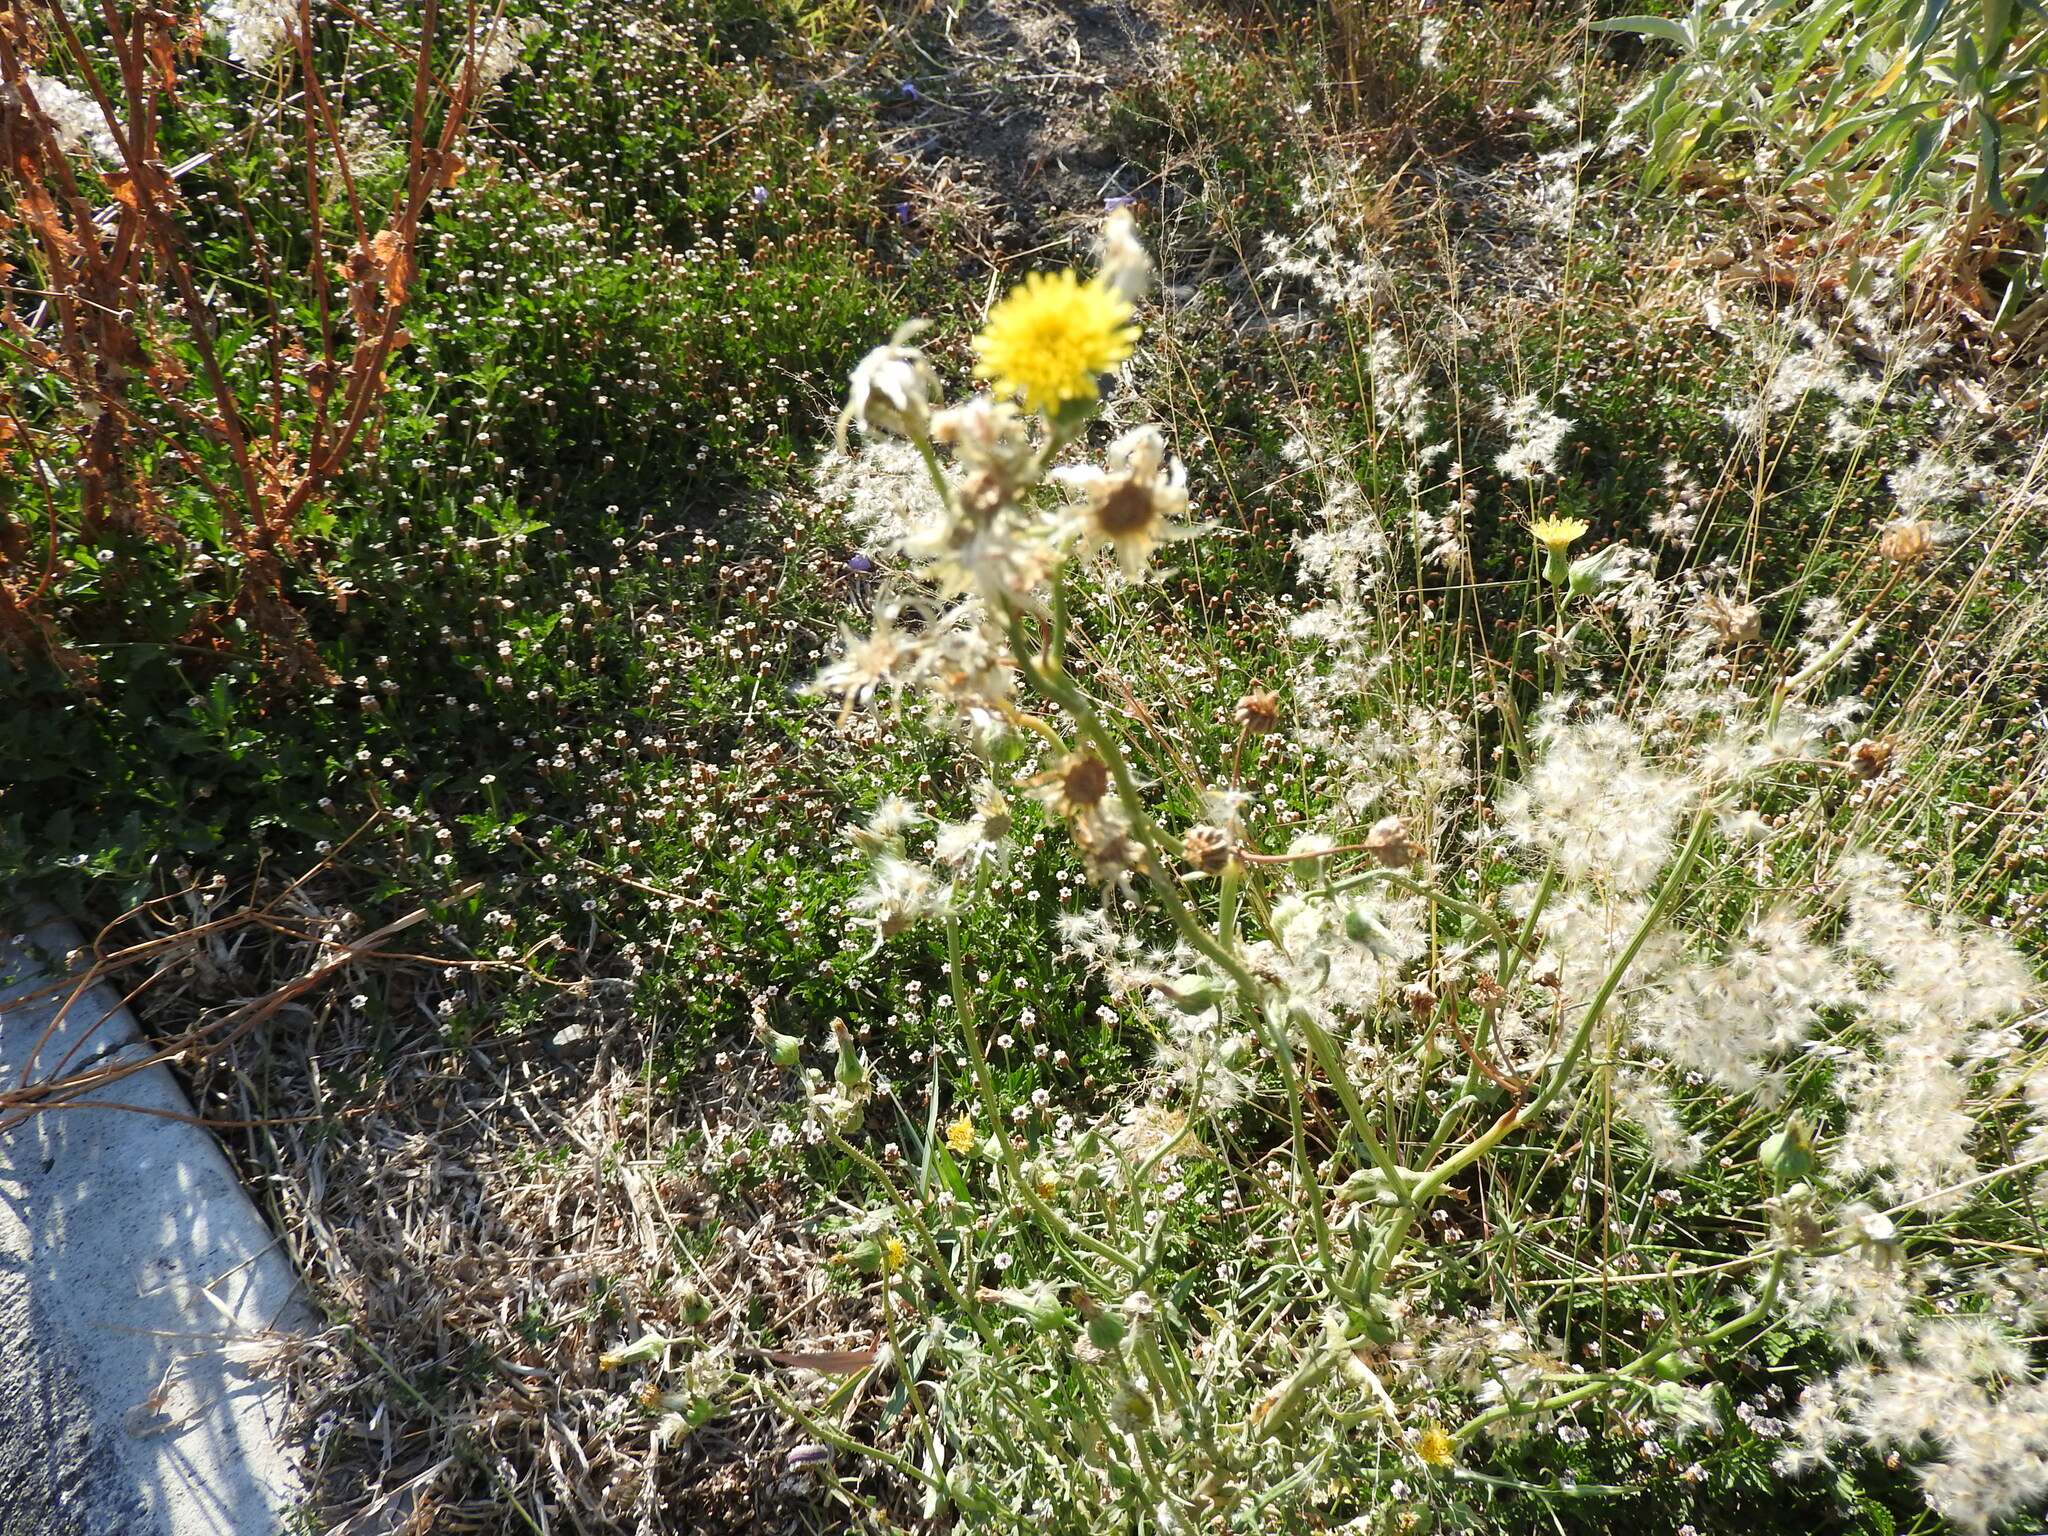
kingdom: Plantae
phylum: Tracheophyta
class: Magnoliopsida
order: Asterales
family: Asteraceae
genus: Sonchus
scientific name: Sonchus oleraceus
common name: Common sowthistle
